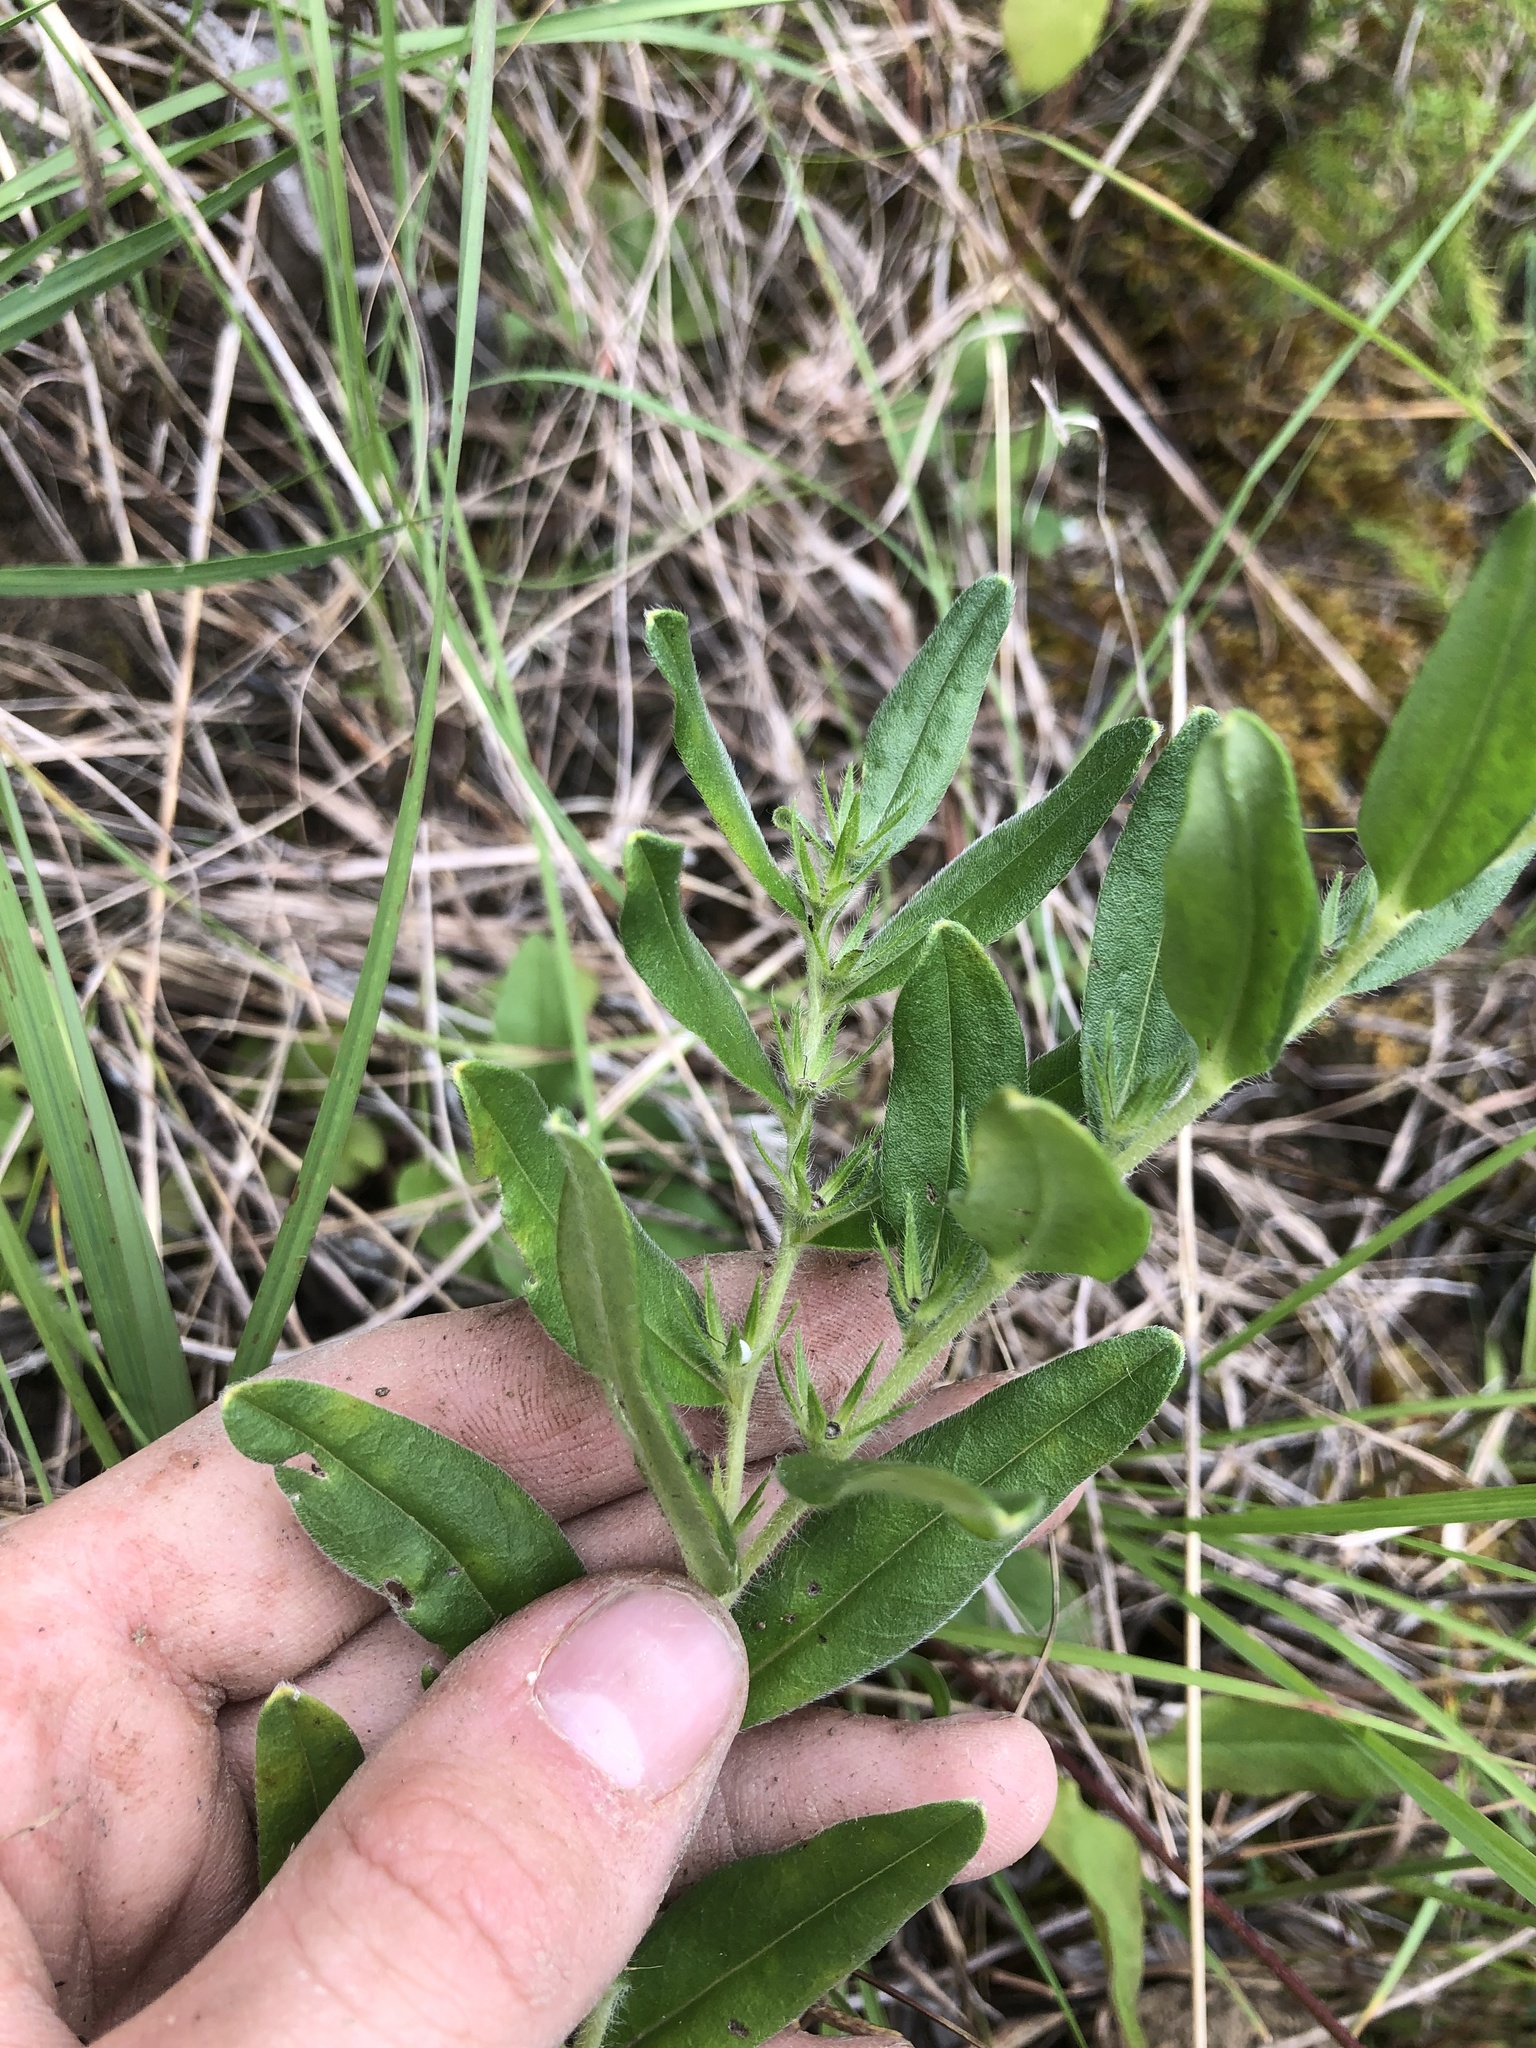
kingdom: Plantae
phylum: Tracheophyta
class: Magnoliopsida
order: Boraginales
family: Boraginaceae
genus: Lithospermum
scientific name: Lithospermum canescens
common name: Hoary puccoon
